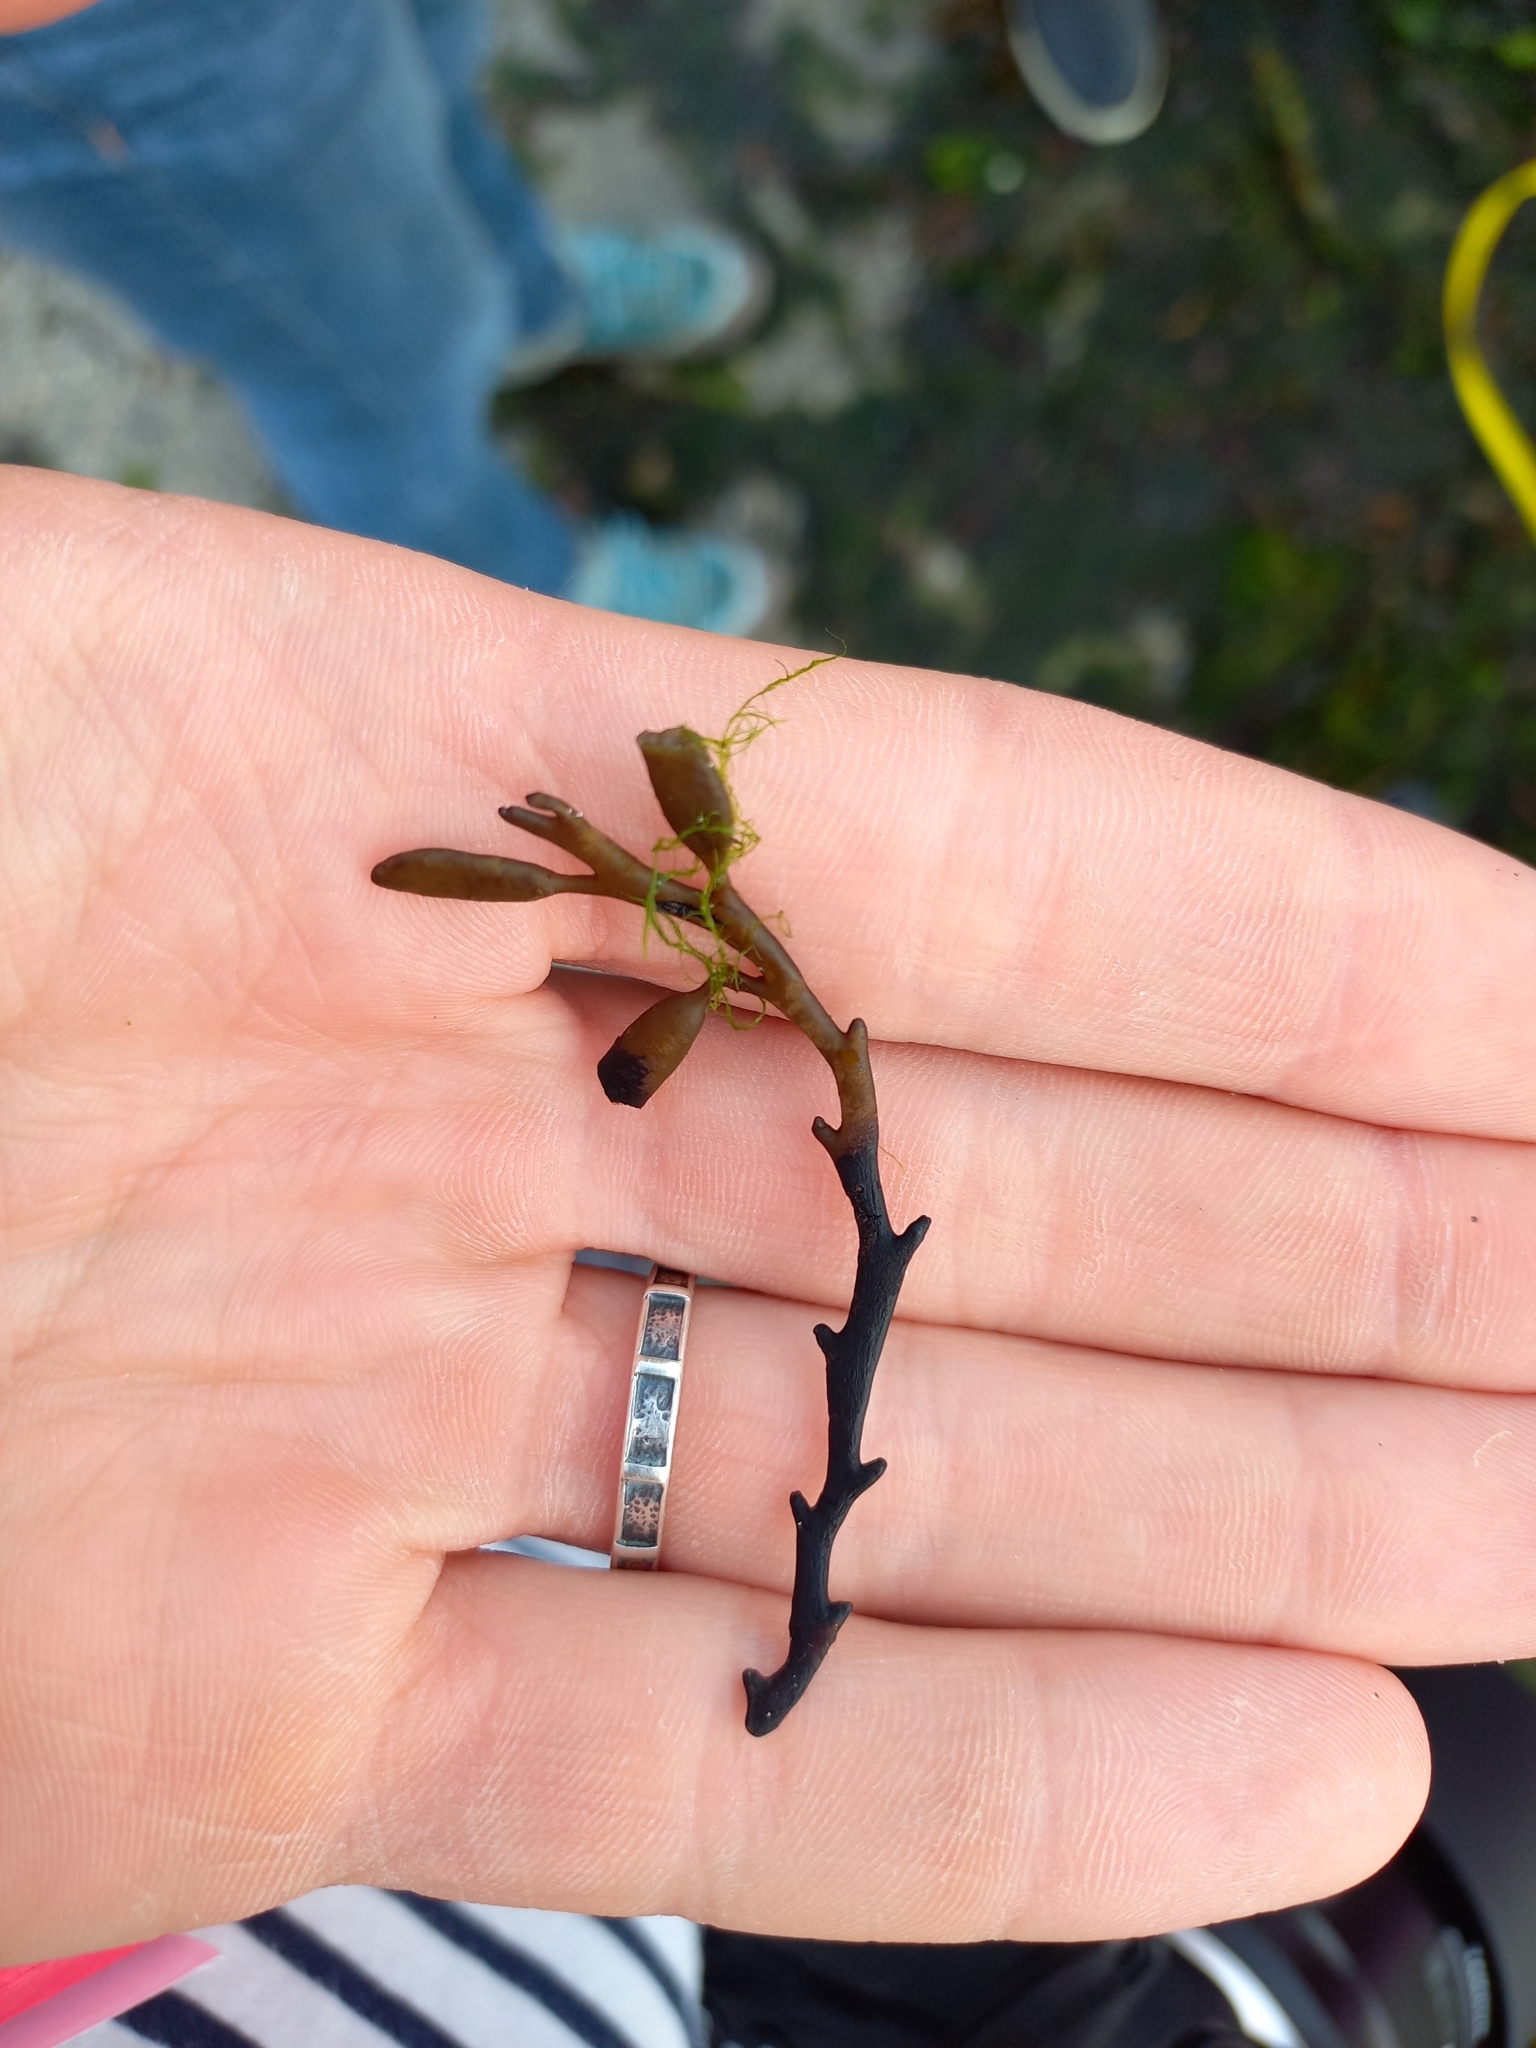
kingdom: Chromista
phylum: Ochrophyta
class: Phaeophyceae
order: Fucales
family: Sargassaceae
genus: Halidrys
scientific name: Halidrys siliquosa
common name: Sea oak
